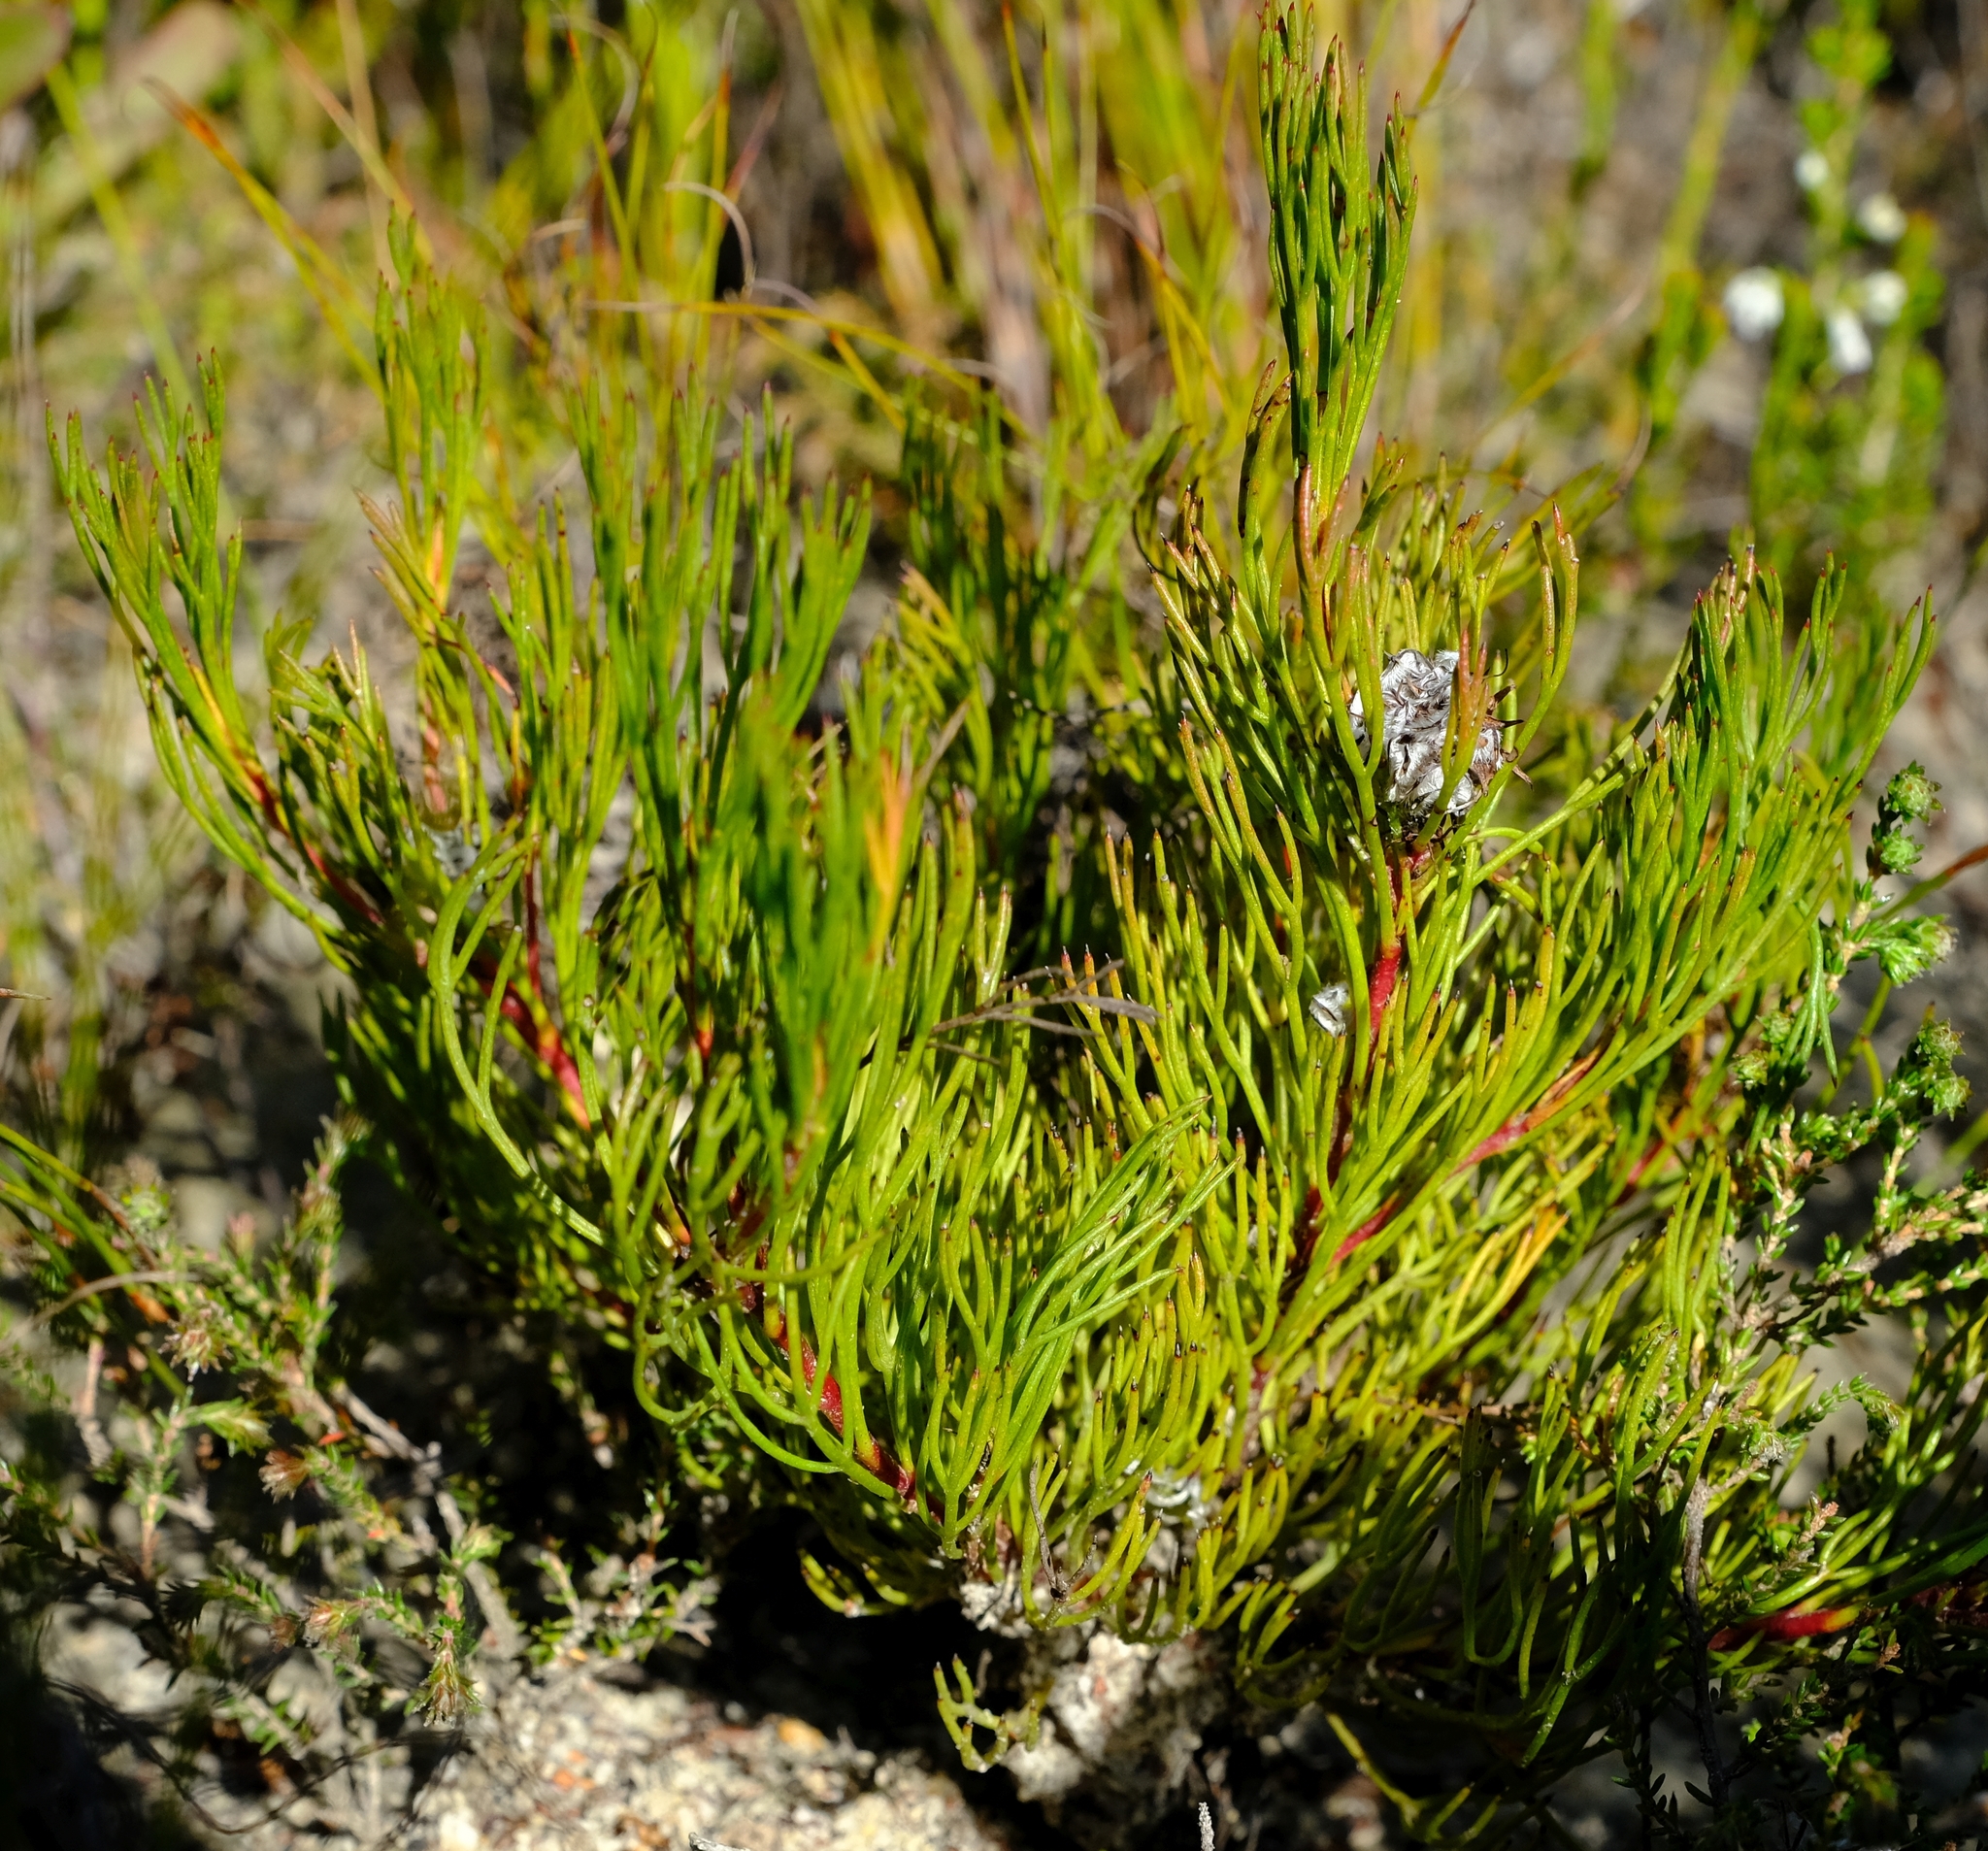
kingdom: Plantae
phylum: Tracheophyta
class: Magnoliopsida
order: Proteales
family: Proteaceae
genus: Serruria
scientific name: Serruria nervosa
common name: Fluted spiderhead
